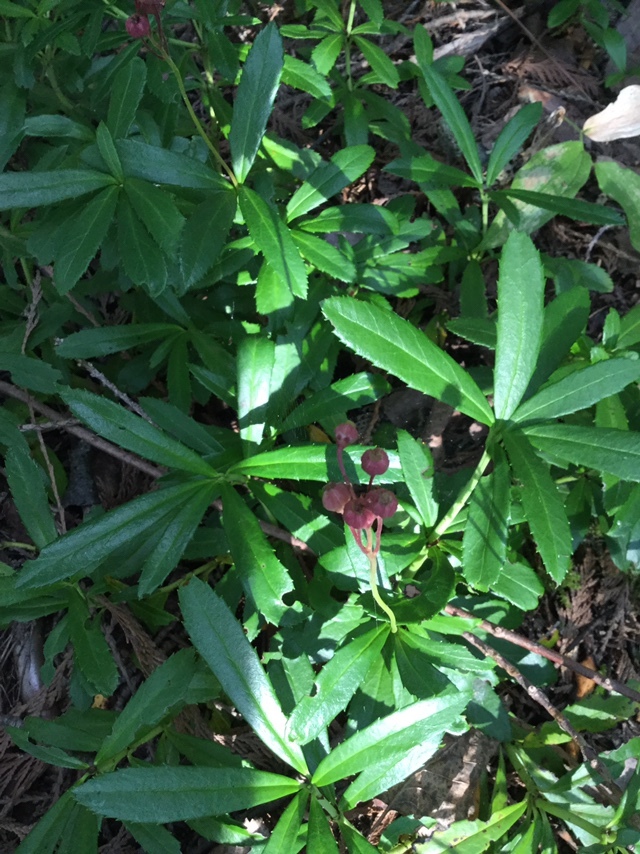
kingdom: Plantae
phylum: Tracheophyta
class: Magnoliopsida
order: Ericales
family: Ericaceae
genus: Chimaphila
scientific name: Chimaphila umbellata
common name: Pipsissewa
